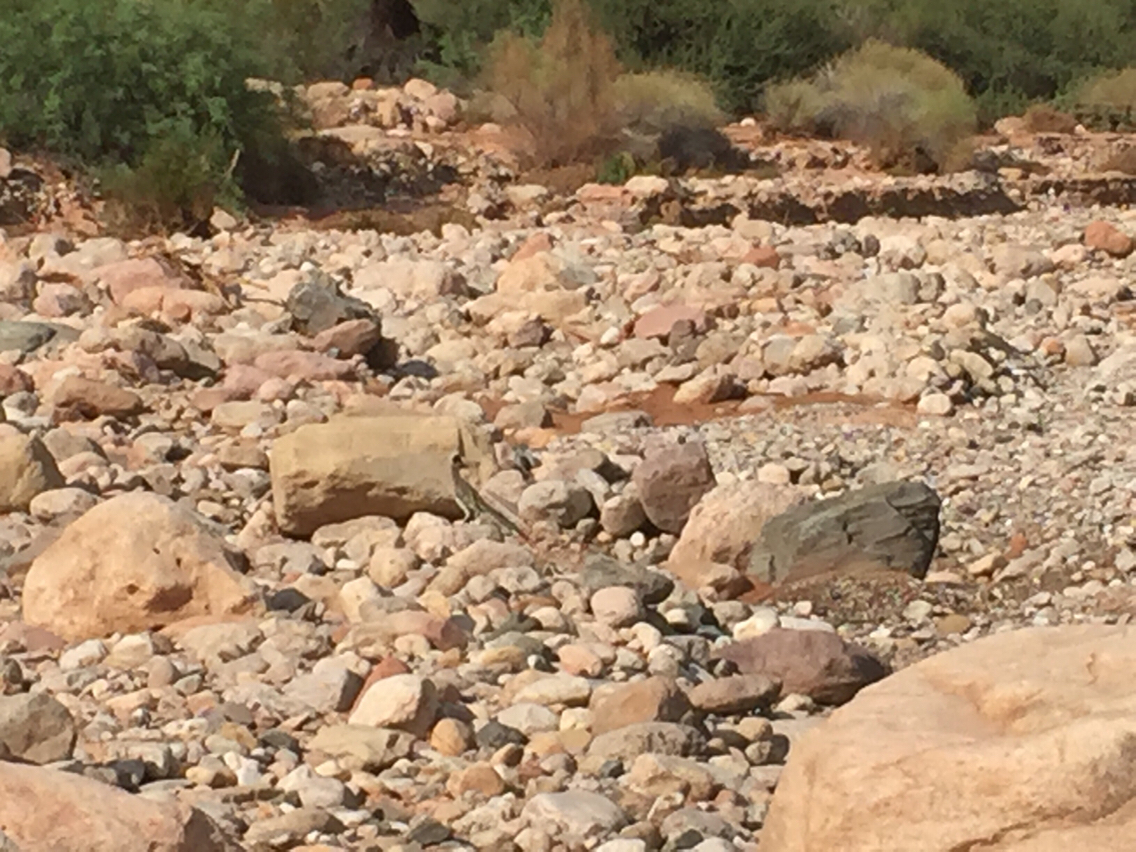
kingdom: Animalia
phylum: Chordata
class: Aves
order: Cuculiformes
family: Cuculidae
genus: Geococcyx
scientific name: Geococcyx californianus
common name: Greater roadrunner
